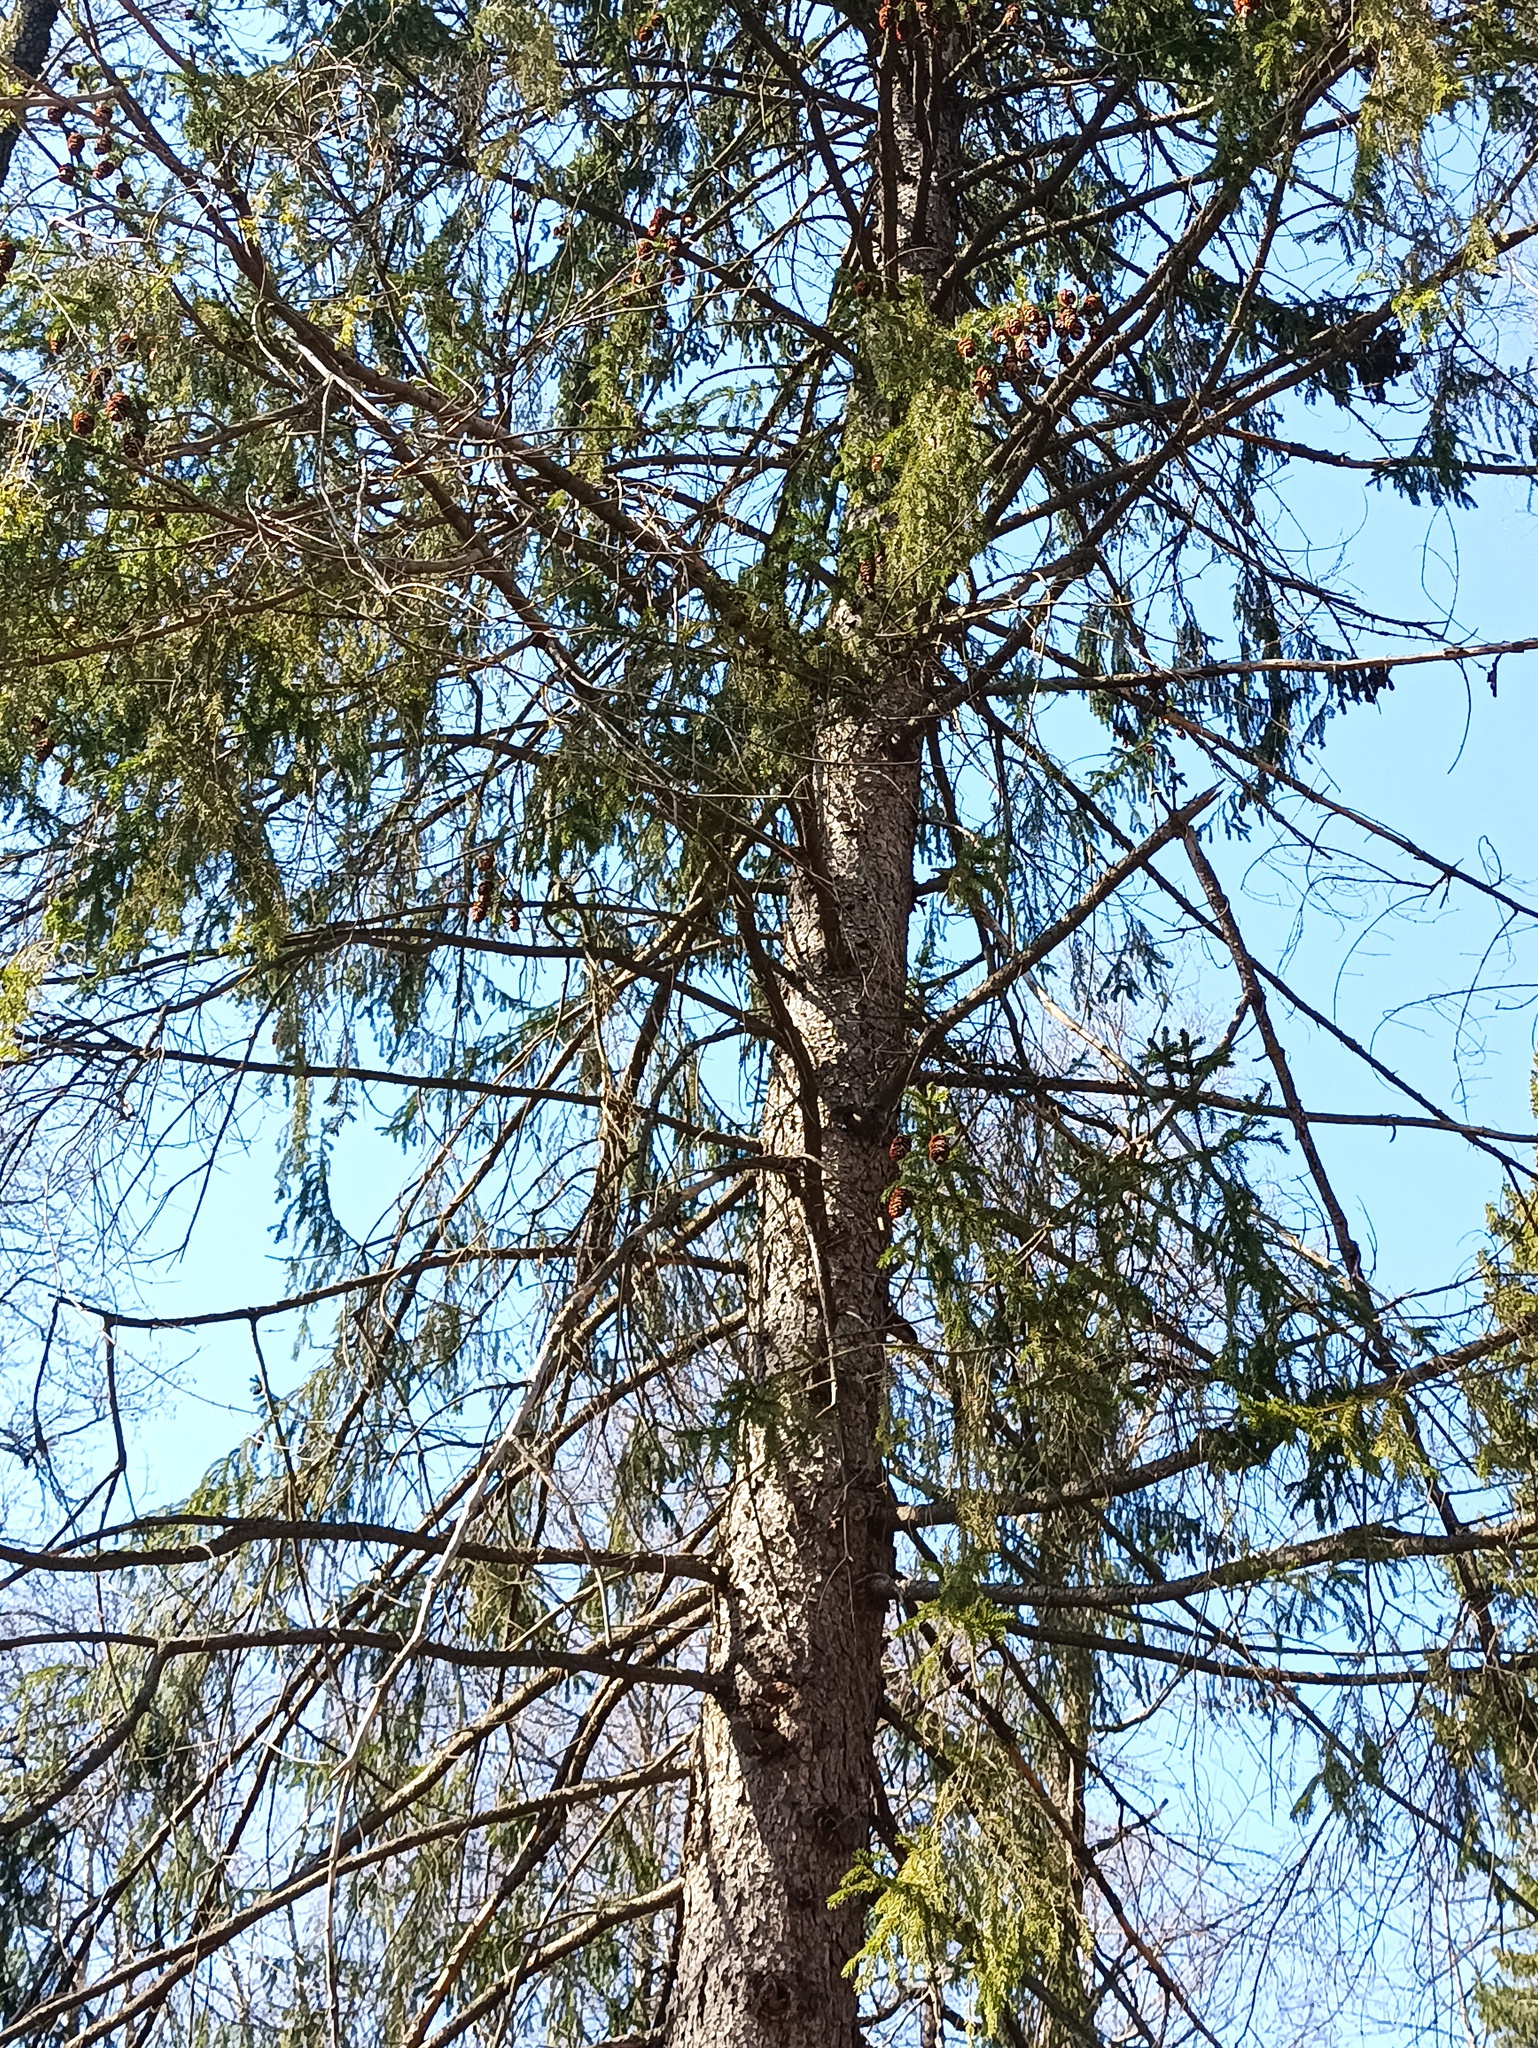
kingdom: Plantae
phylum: Tracheophyta
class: Pinopsida
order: Pinales
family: Pinaceae
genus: Picea
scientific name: Picea abies
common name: Norway spruce
